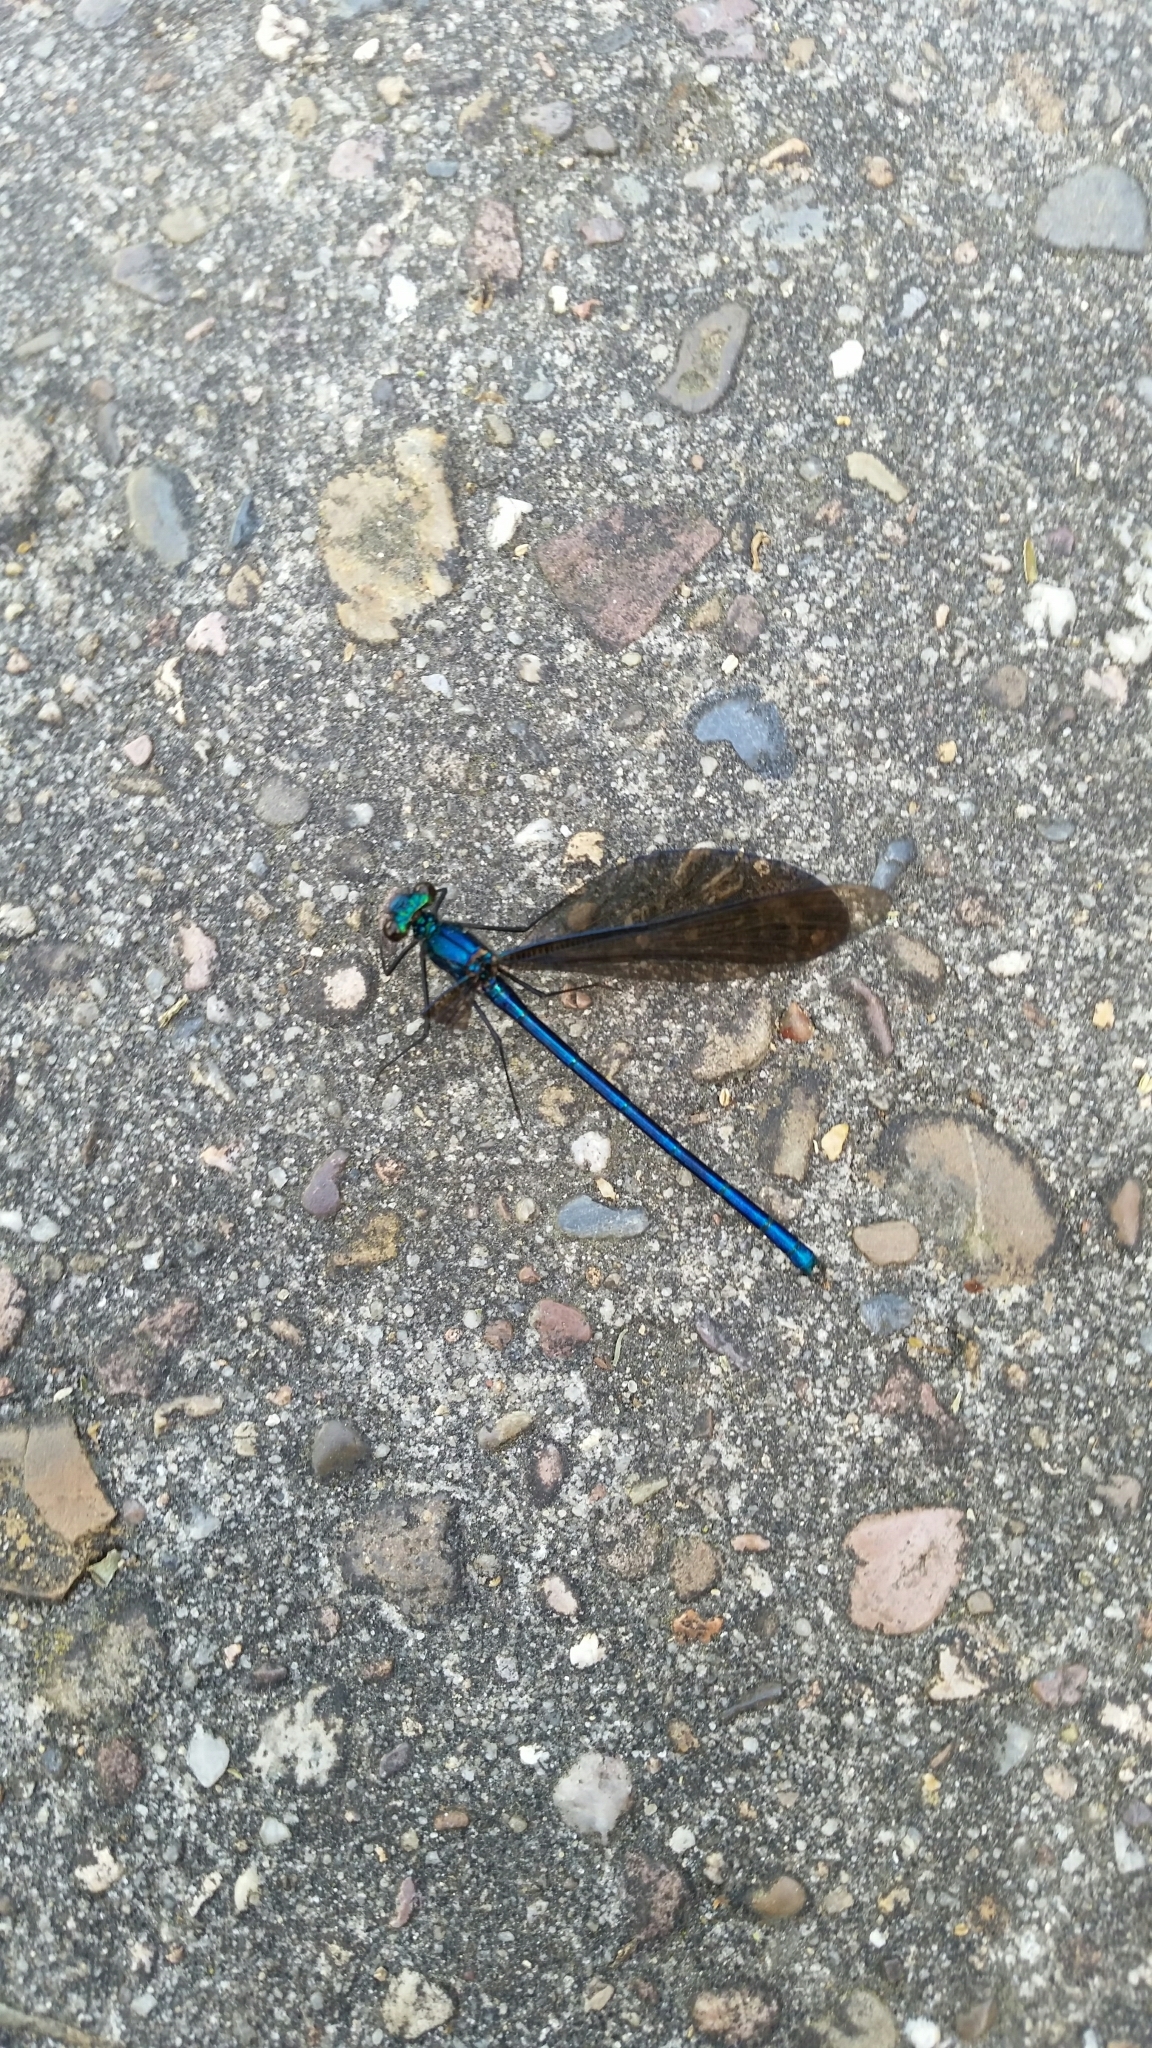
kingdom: Animalia
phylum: Arthropoda
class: Insecta
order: Odonata
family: Calopterygidae
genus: Calopteryx
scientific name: Calopteryx virgo
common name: Beautiful demoiselle
